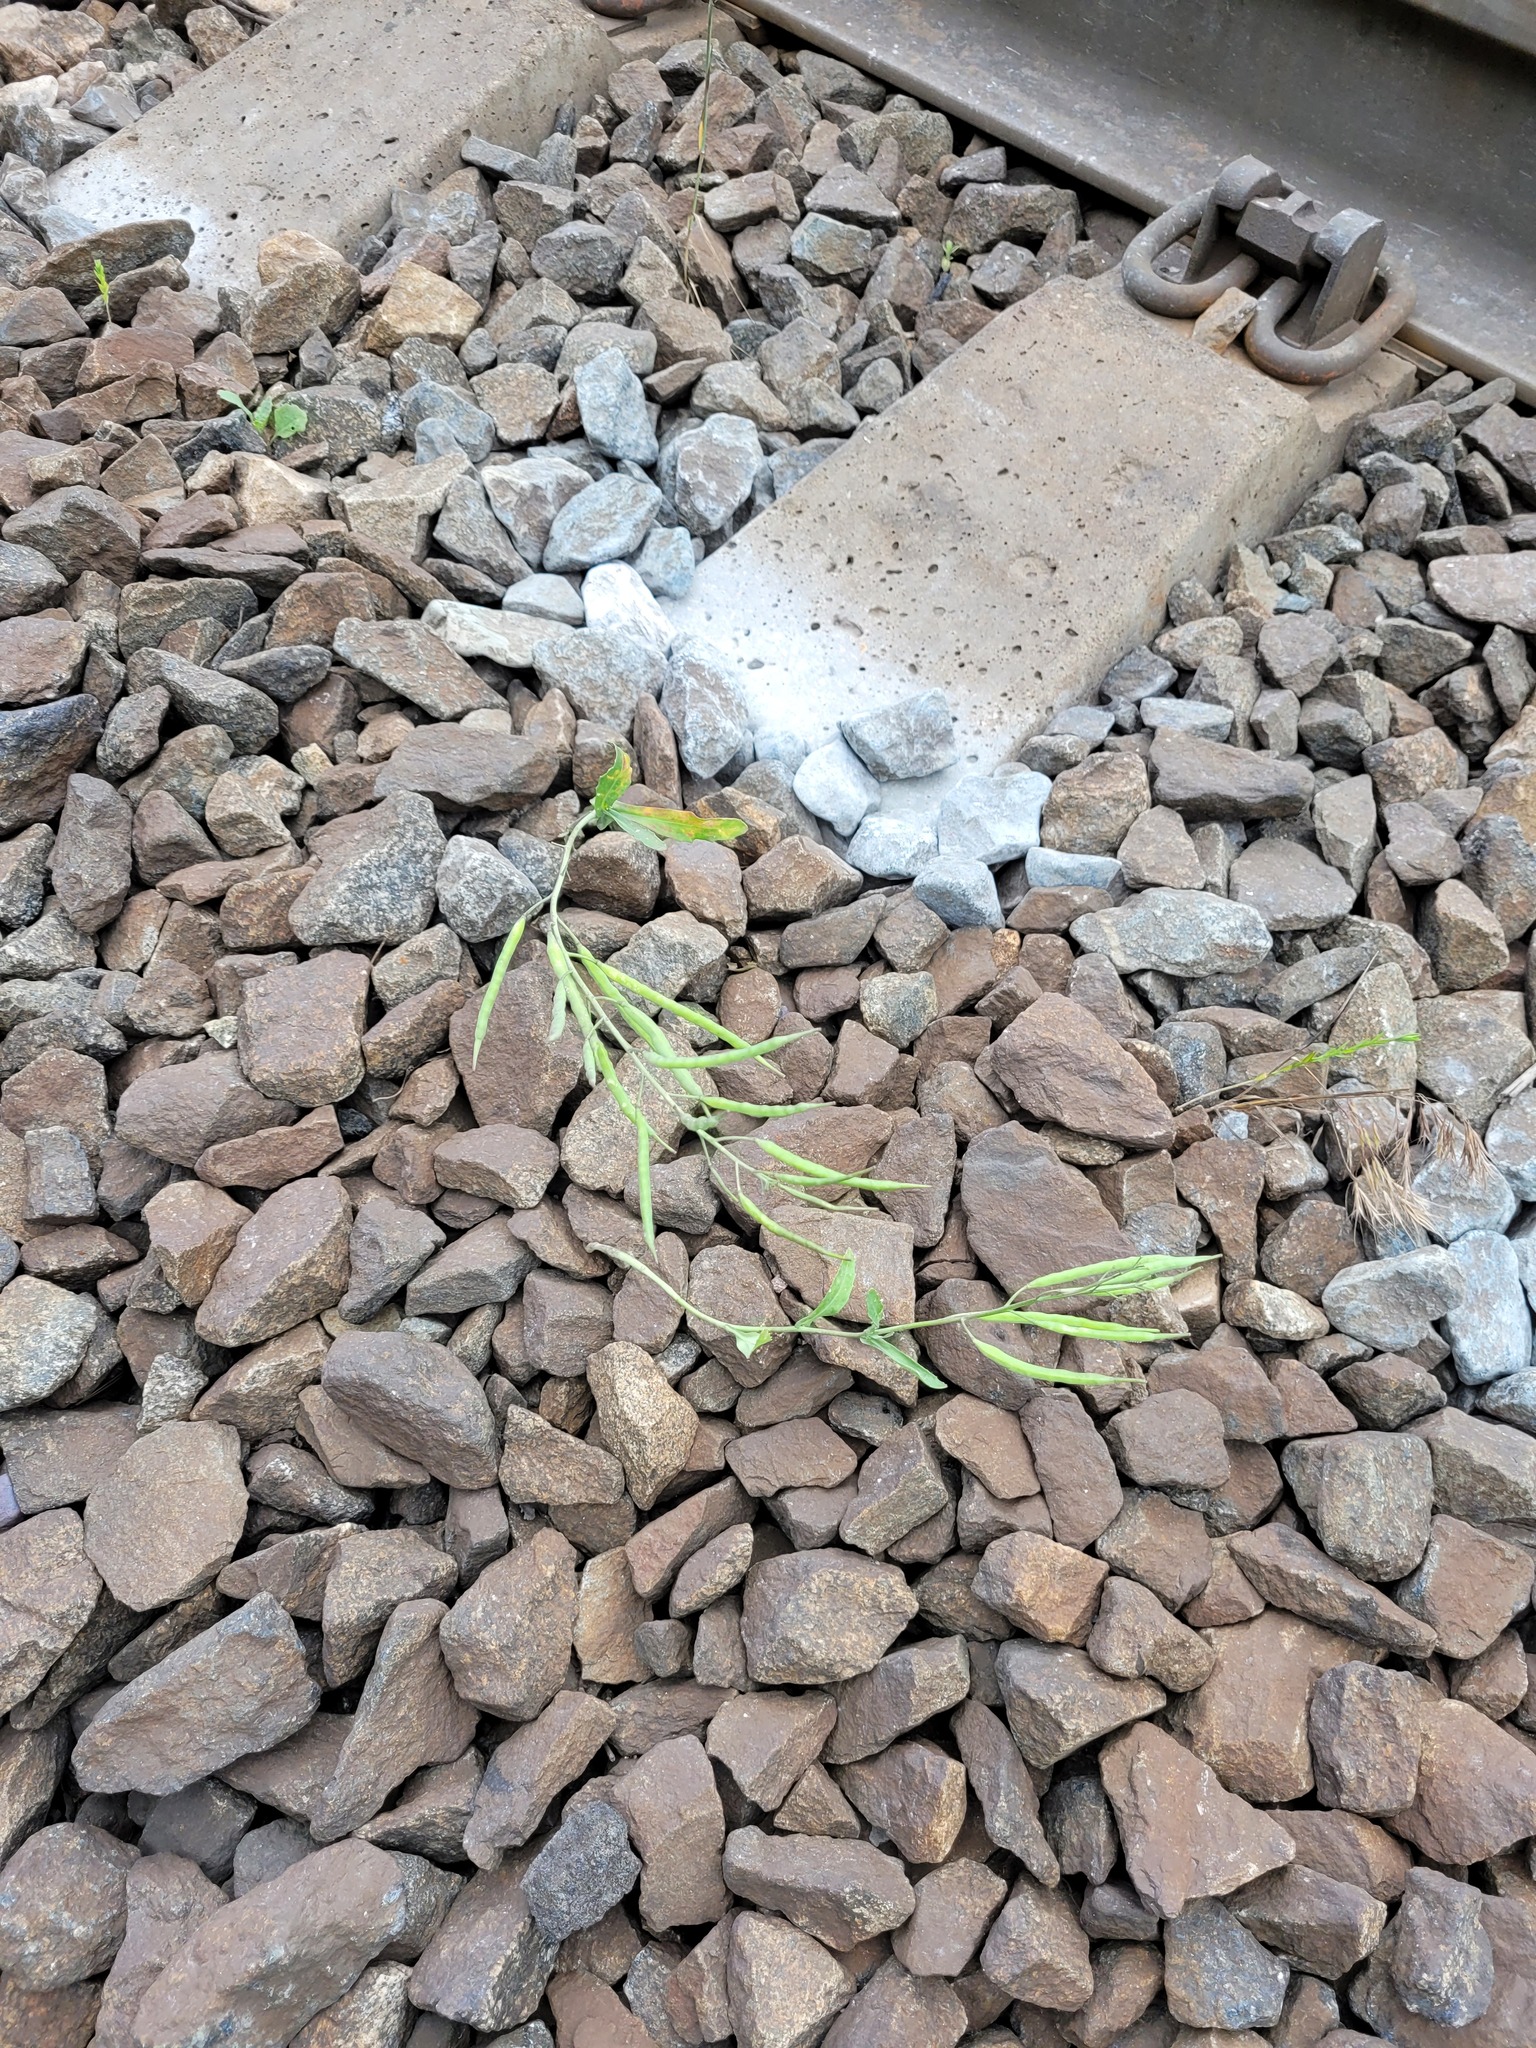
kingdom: Plantae
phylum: Tracheophyta
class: Magnoliopsida
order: Brassicales
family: Brassicaceae
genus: Brassica
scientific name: Brassica napus
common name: Rape
